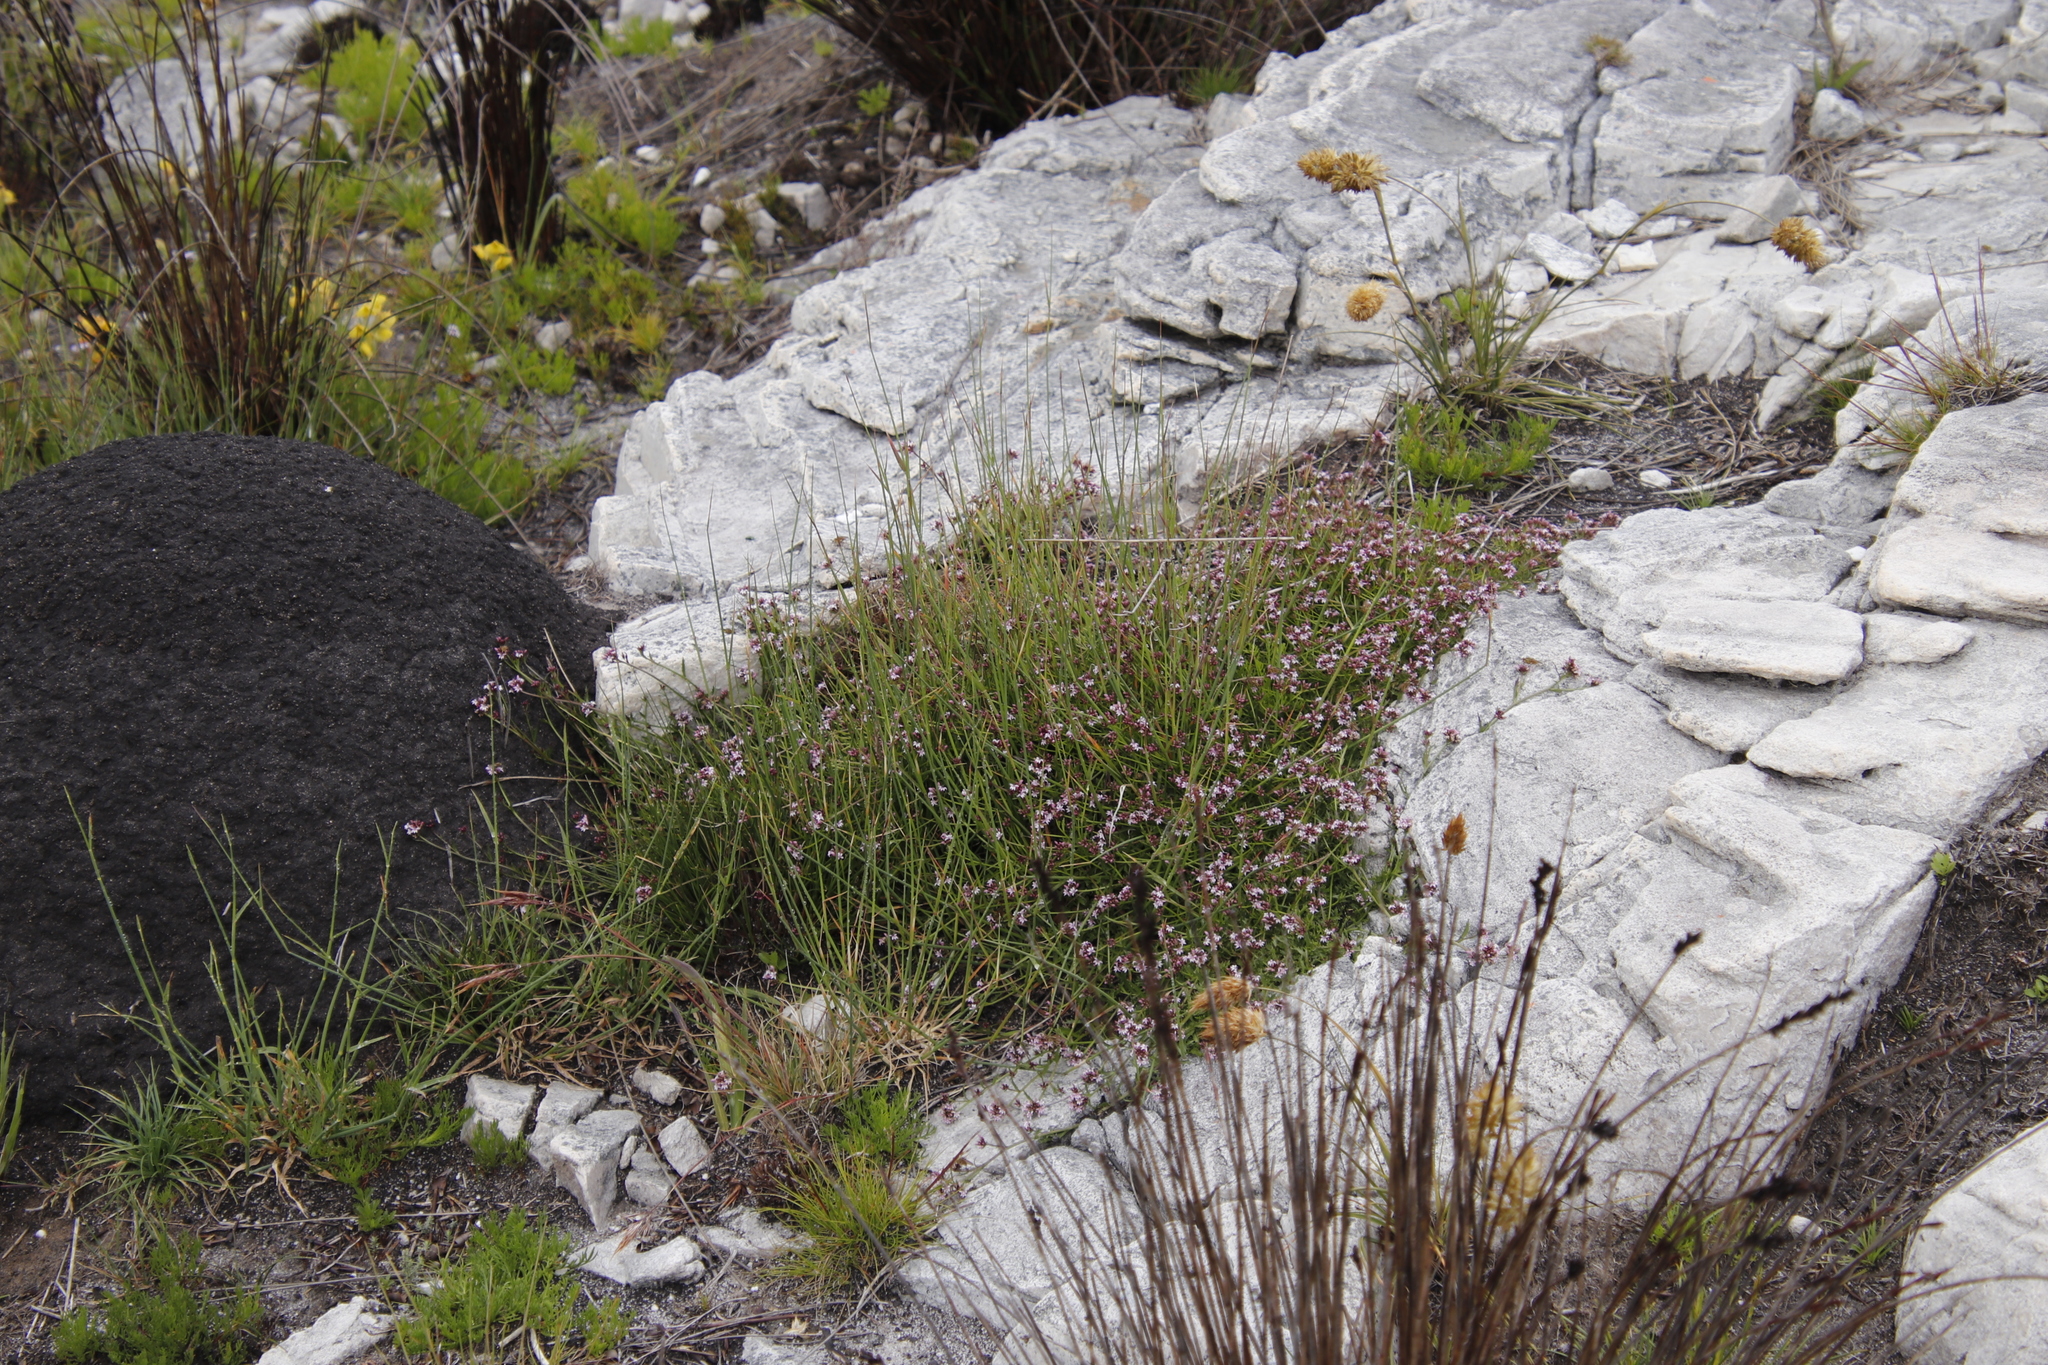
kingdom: Plantae
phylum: Tracheophyta
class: Magnoliopsida
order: Asterales
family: Campanulaceae
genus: Lobelia
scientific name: Lobelia jasionoides
